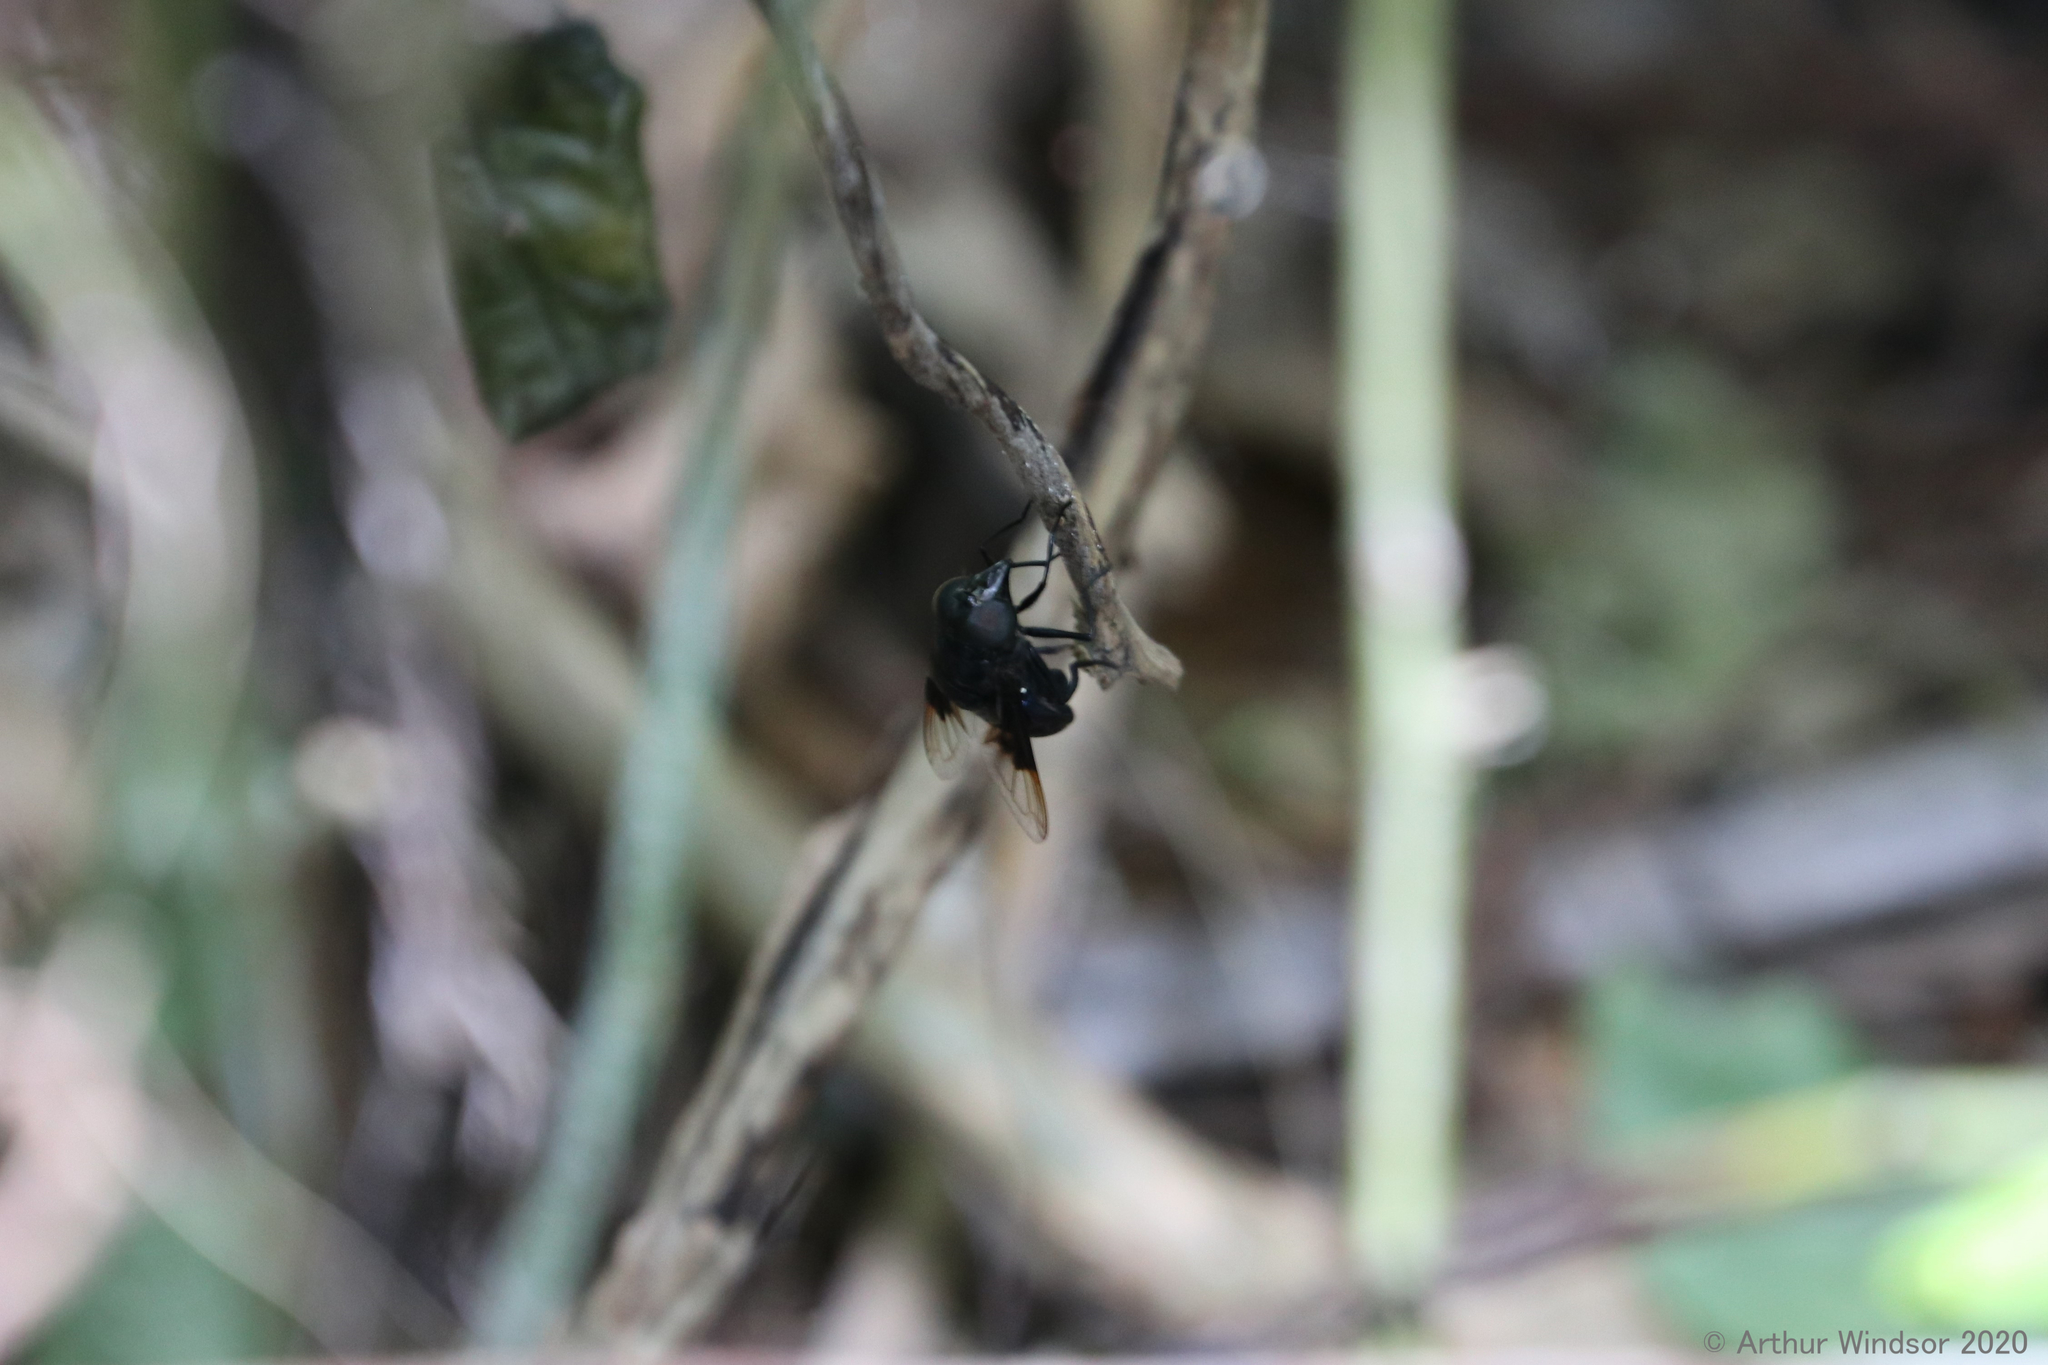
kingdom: Animalia
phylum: Arthropoda
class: Insecta
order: Diptera
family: Syrphidae
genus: Copestylum
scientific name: Copestylum mexicanum
